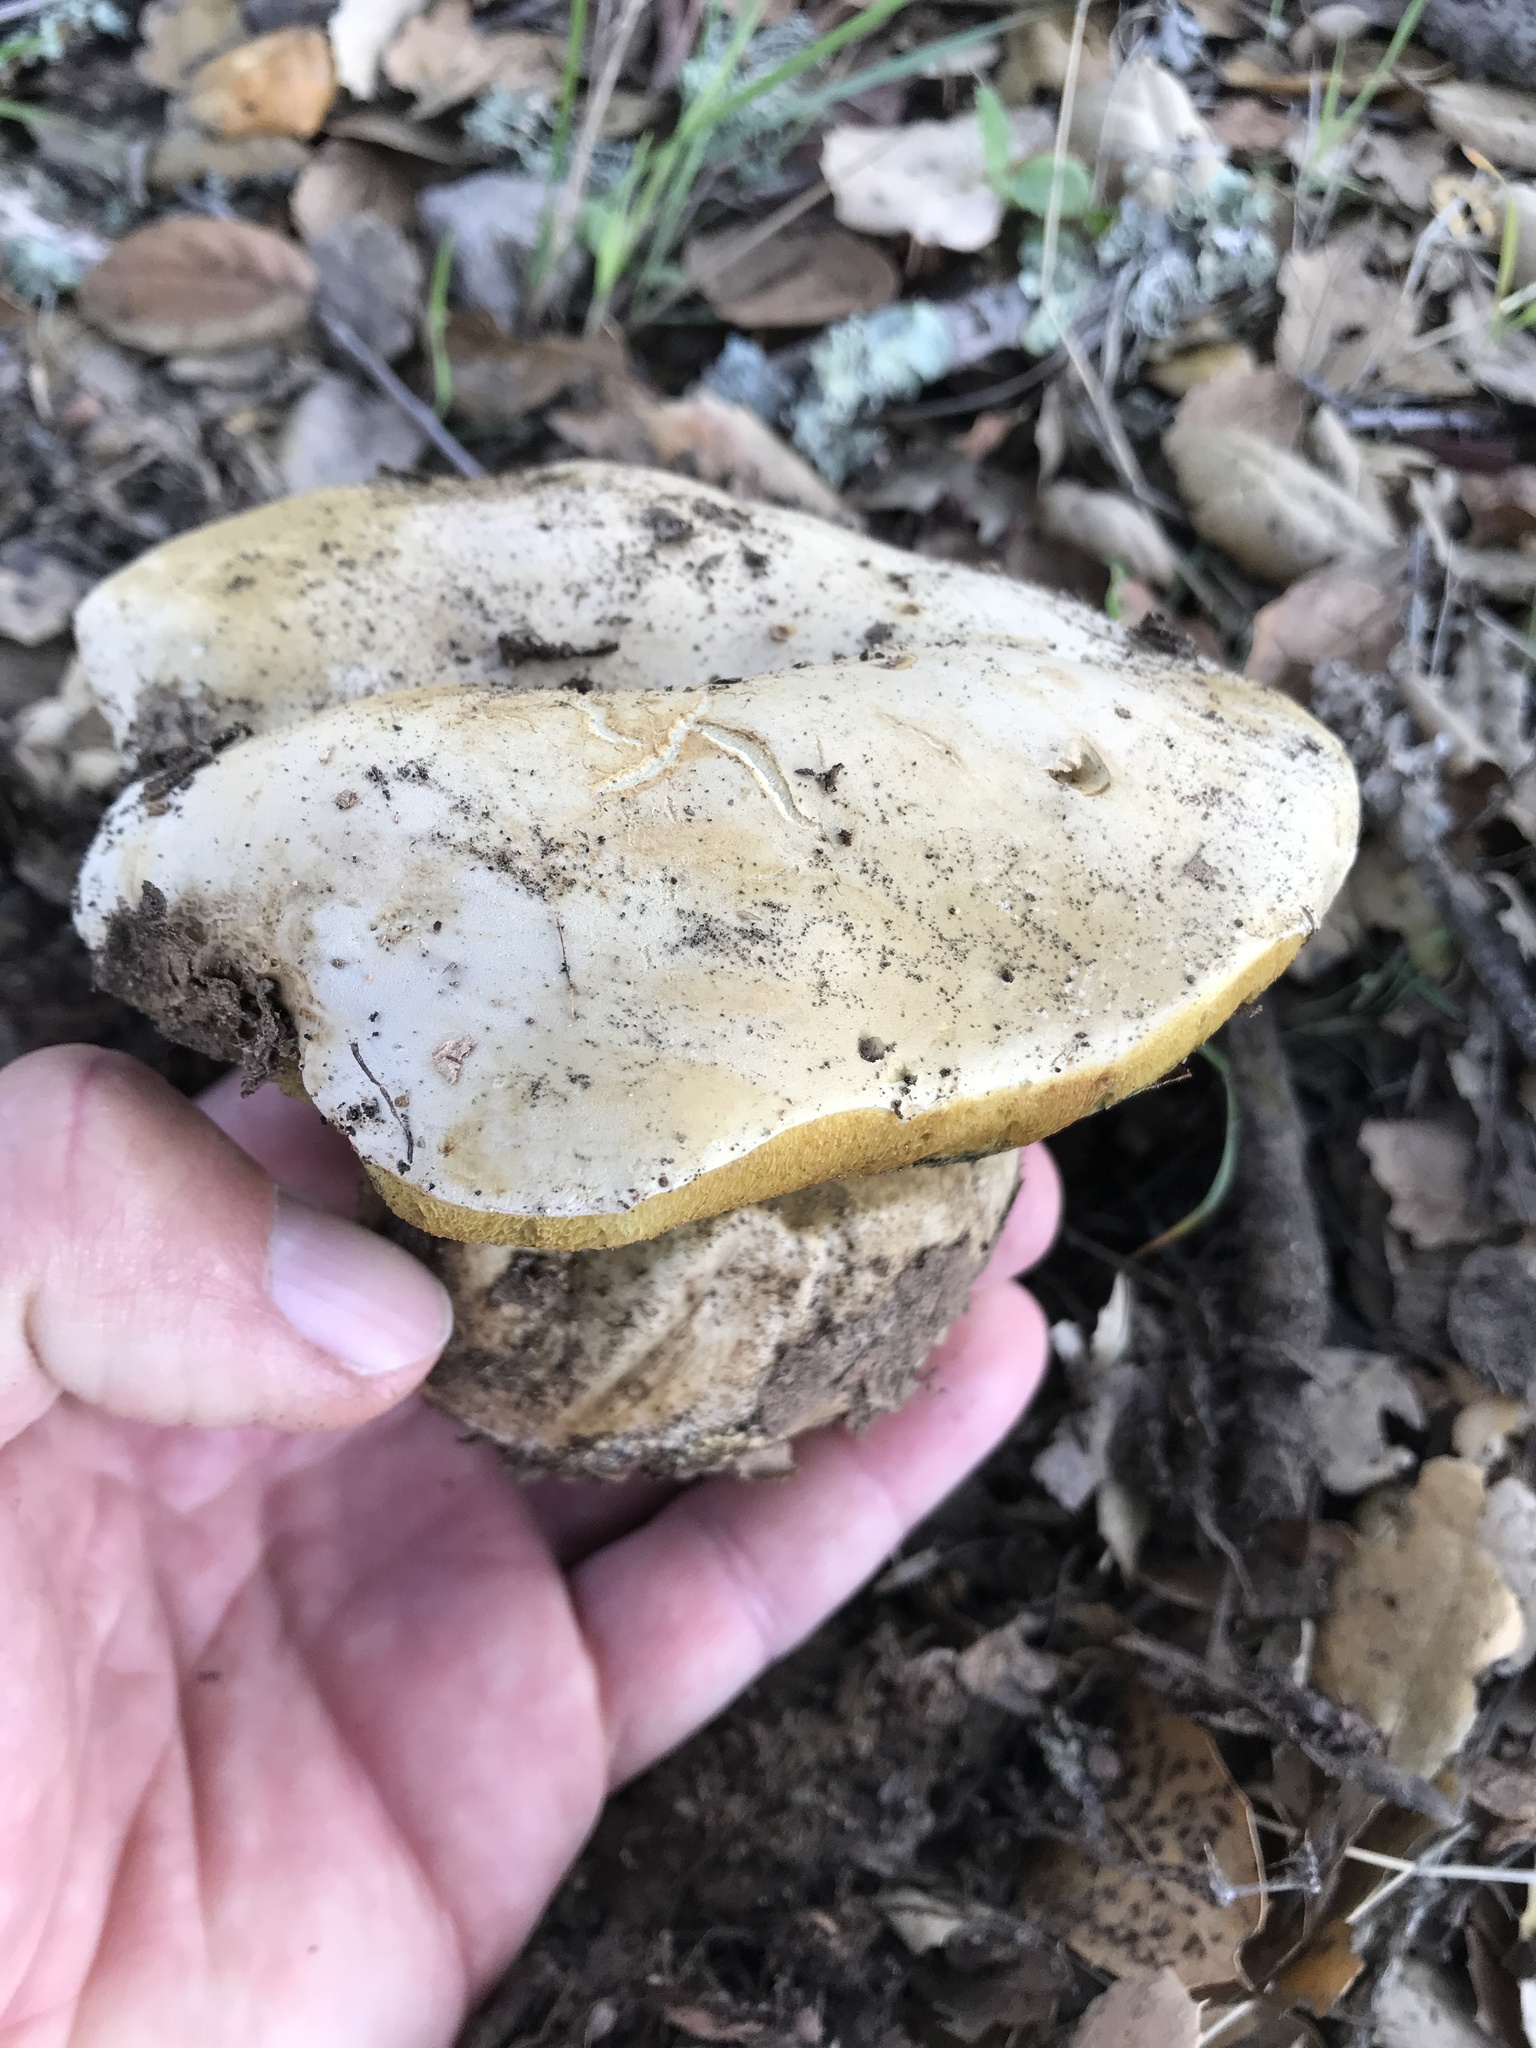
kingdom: Fungi
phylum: Basidiomycota
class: Agaricomycetes
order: Boletales
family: Boletaceae
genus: Caloboletus
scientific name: Caloboletus marshii
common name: Ben's bitter bolete
